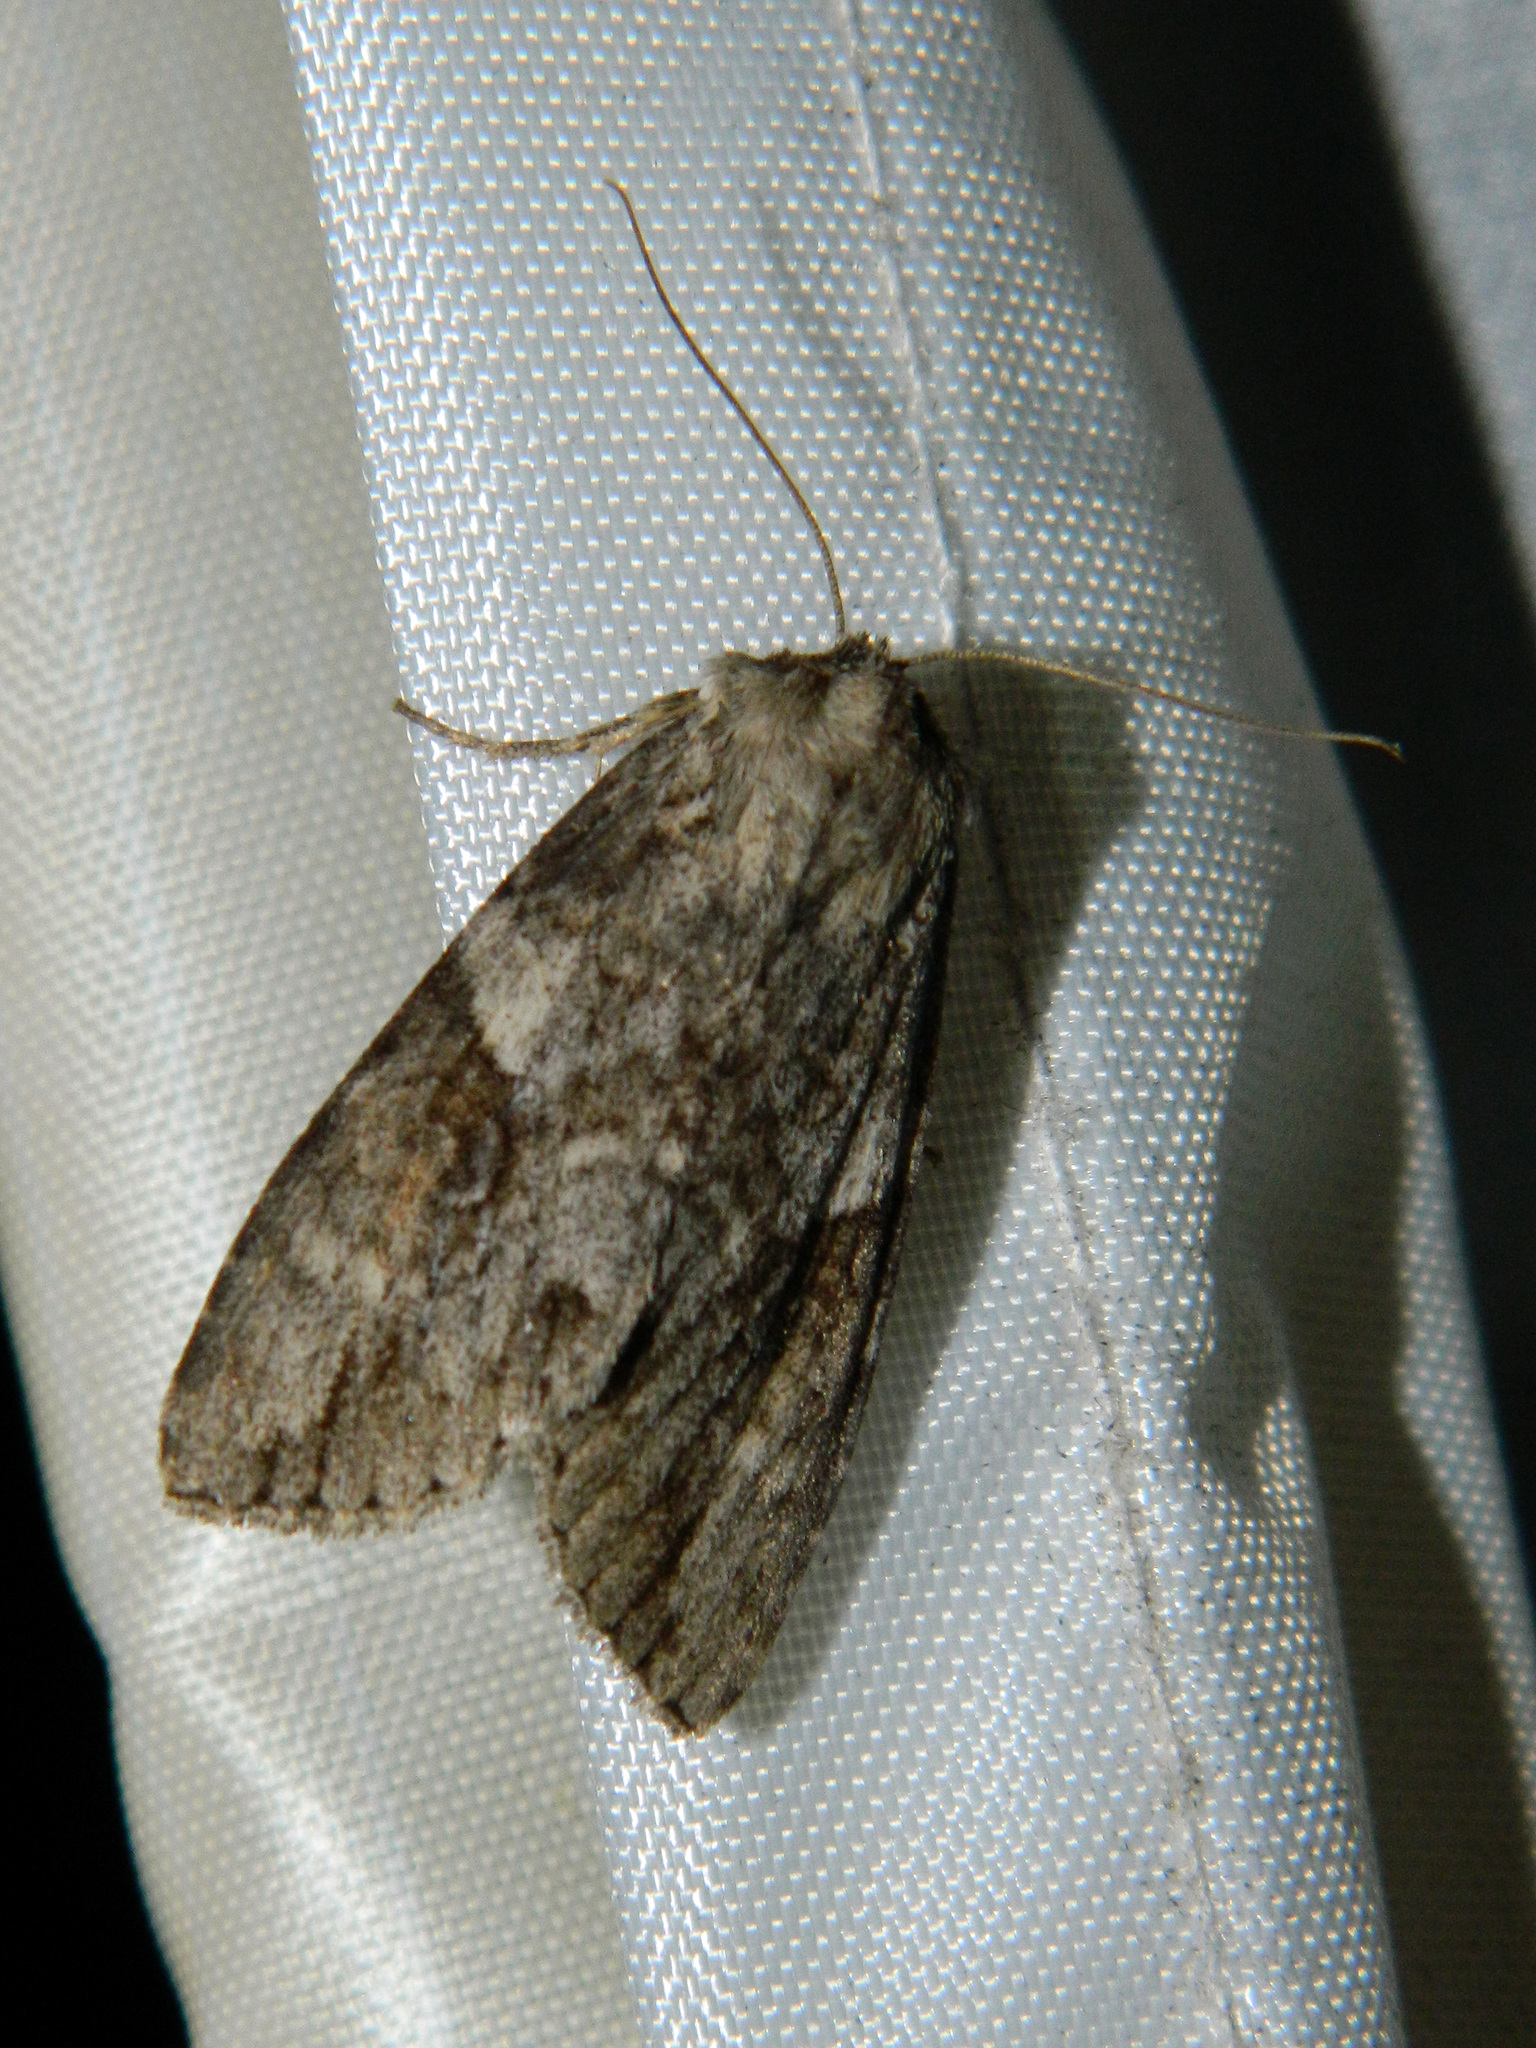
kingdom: Animalia
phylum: Arthropoda
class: Insecta
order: Lepidoptera
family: Noctuidae
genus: Achatia
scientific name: Achatia latex
